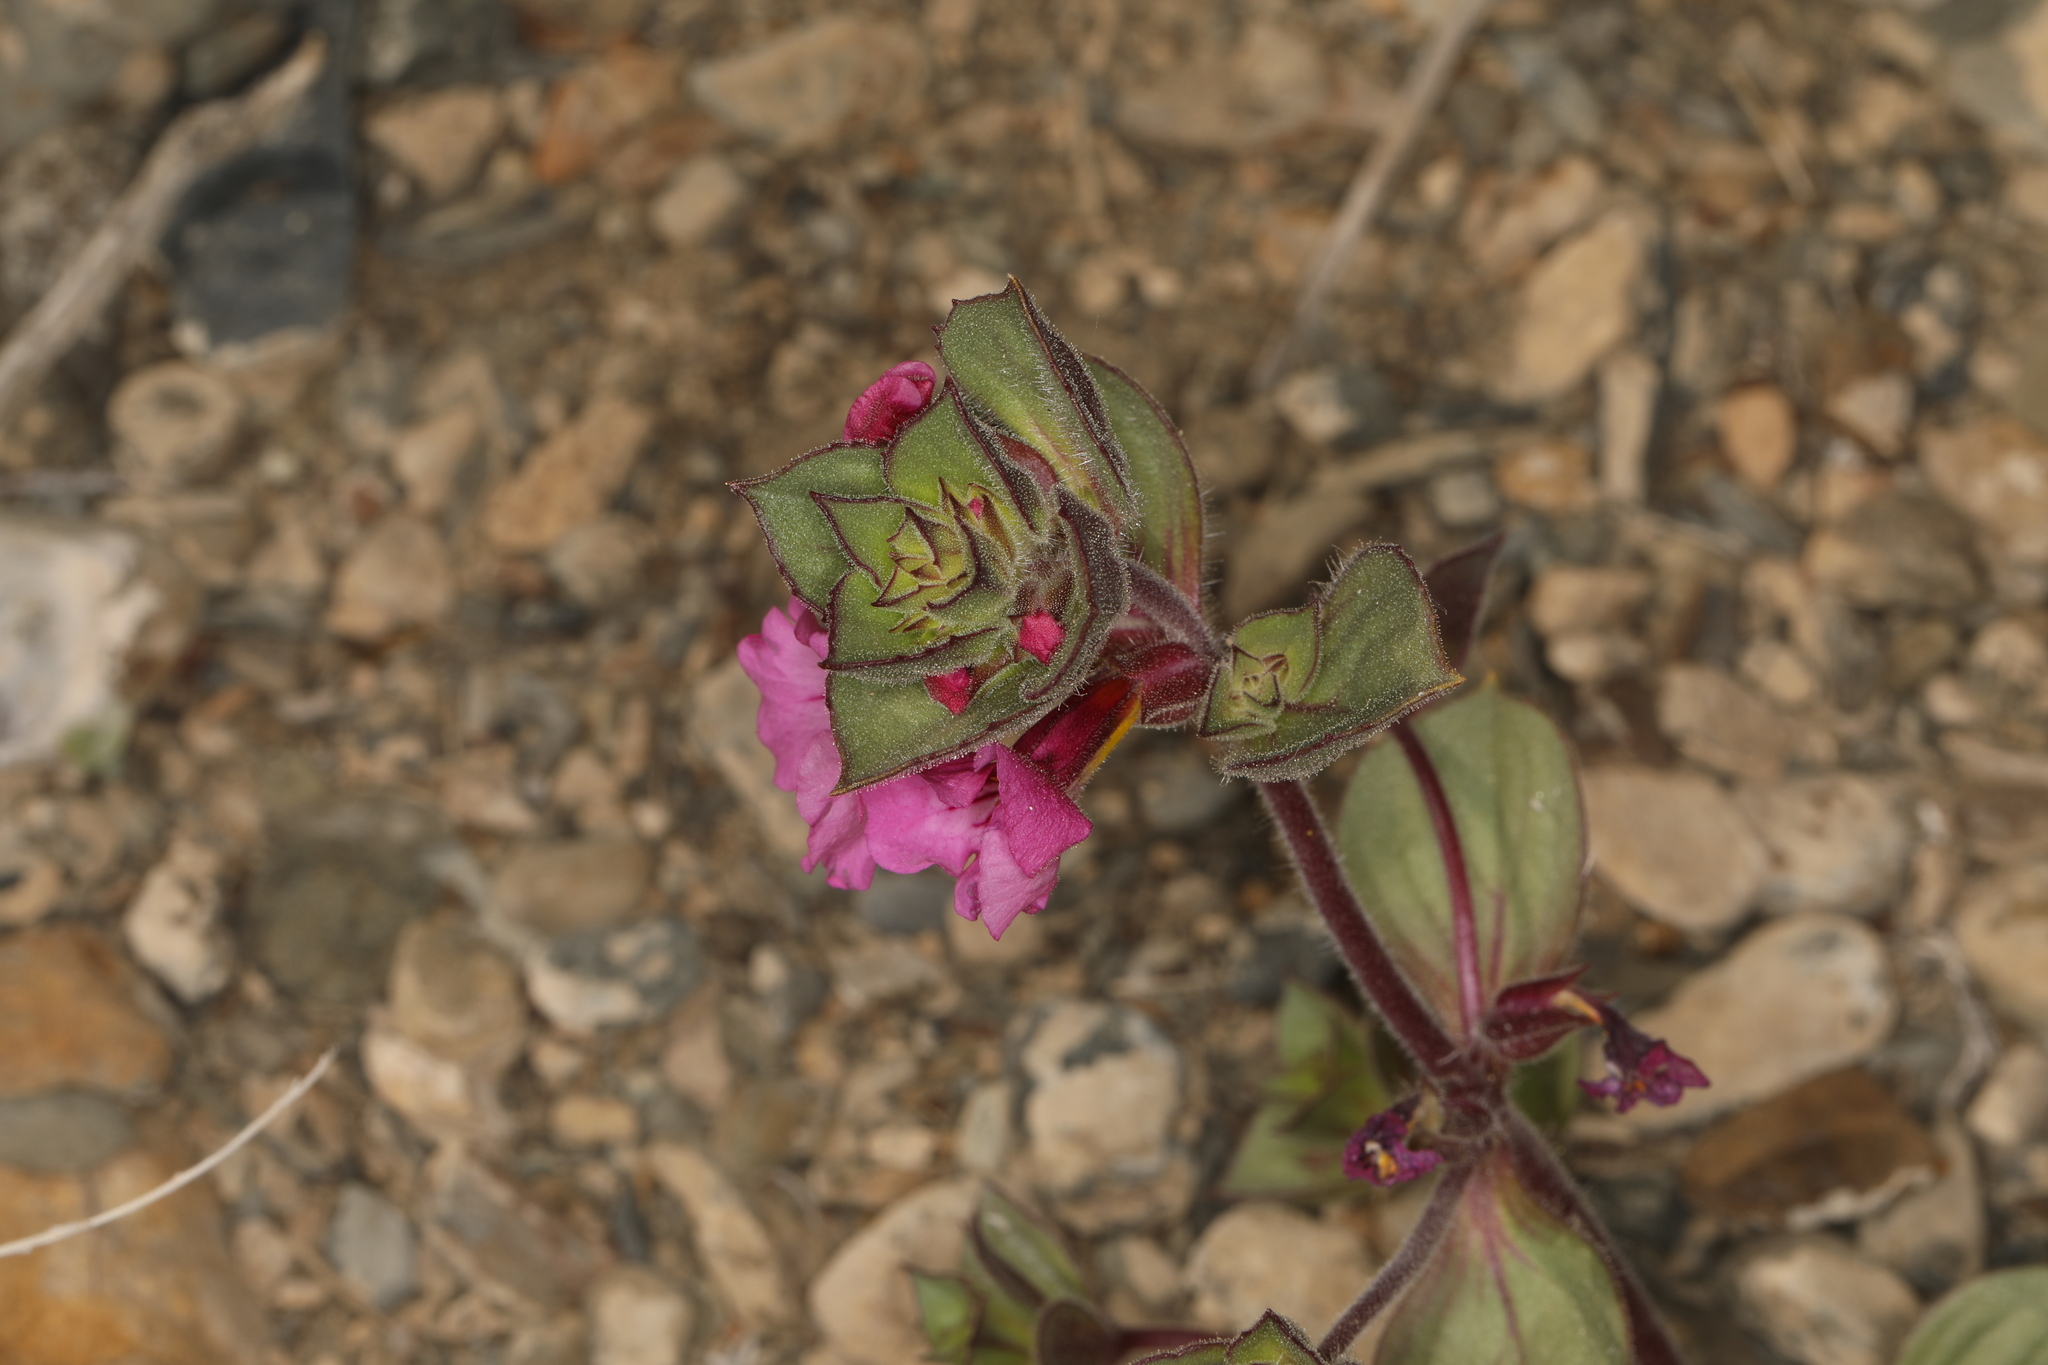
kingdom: Plantae
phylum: Tracheophyta
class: Magnoliopsida
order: Lamiales
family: Phrymaceae
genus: Diplacus
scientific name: Diplacus bigelovii
